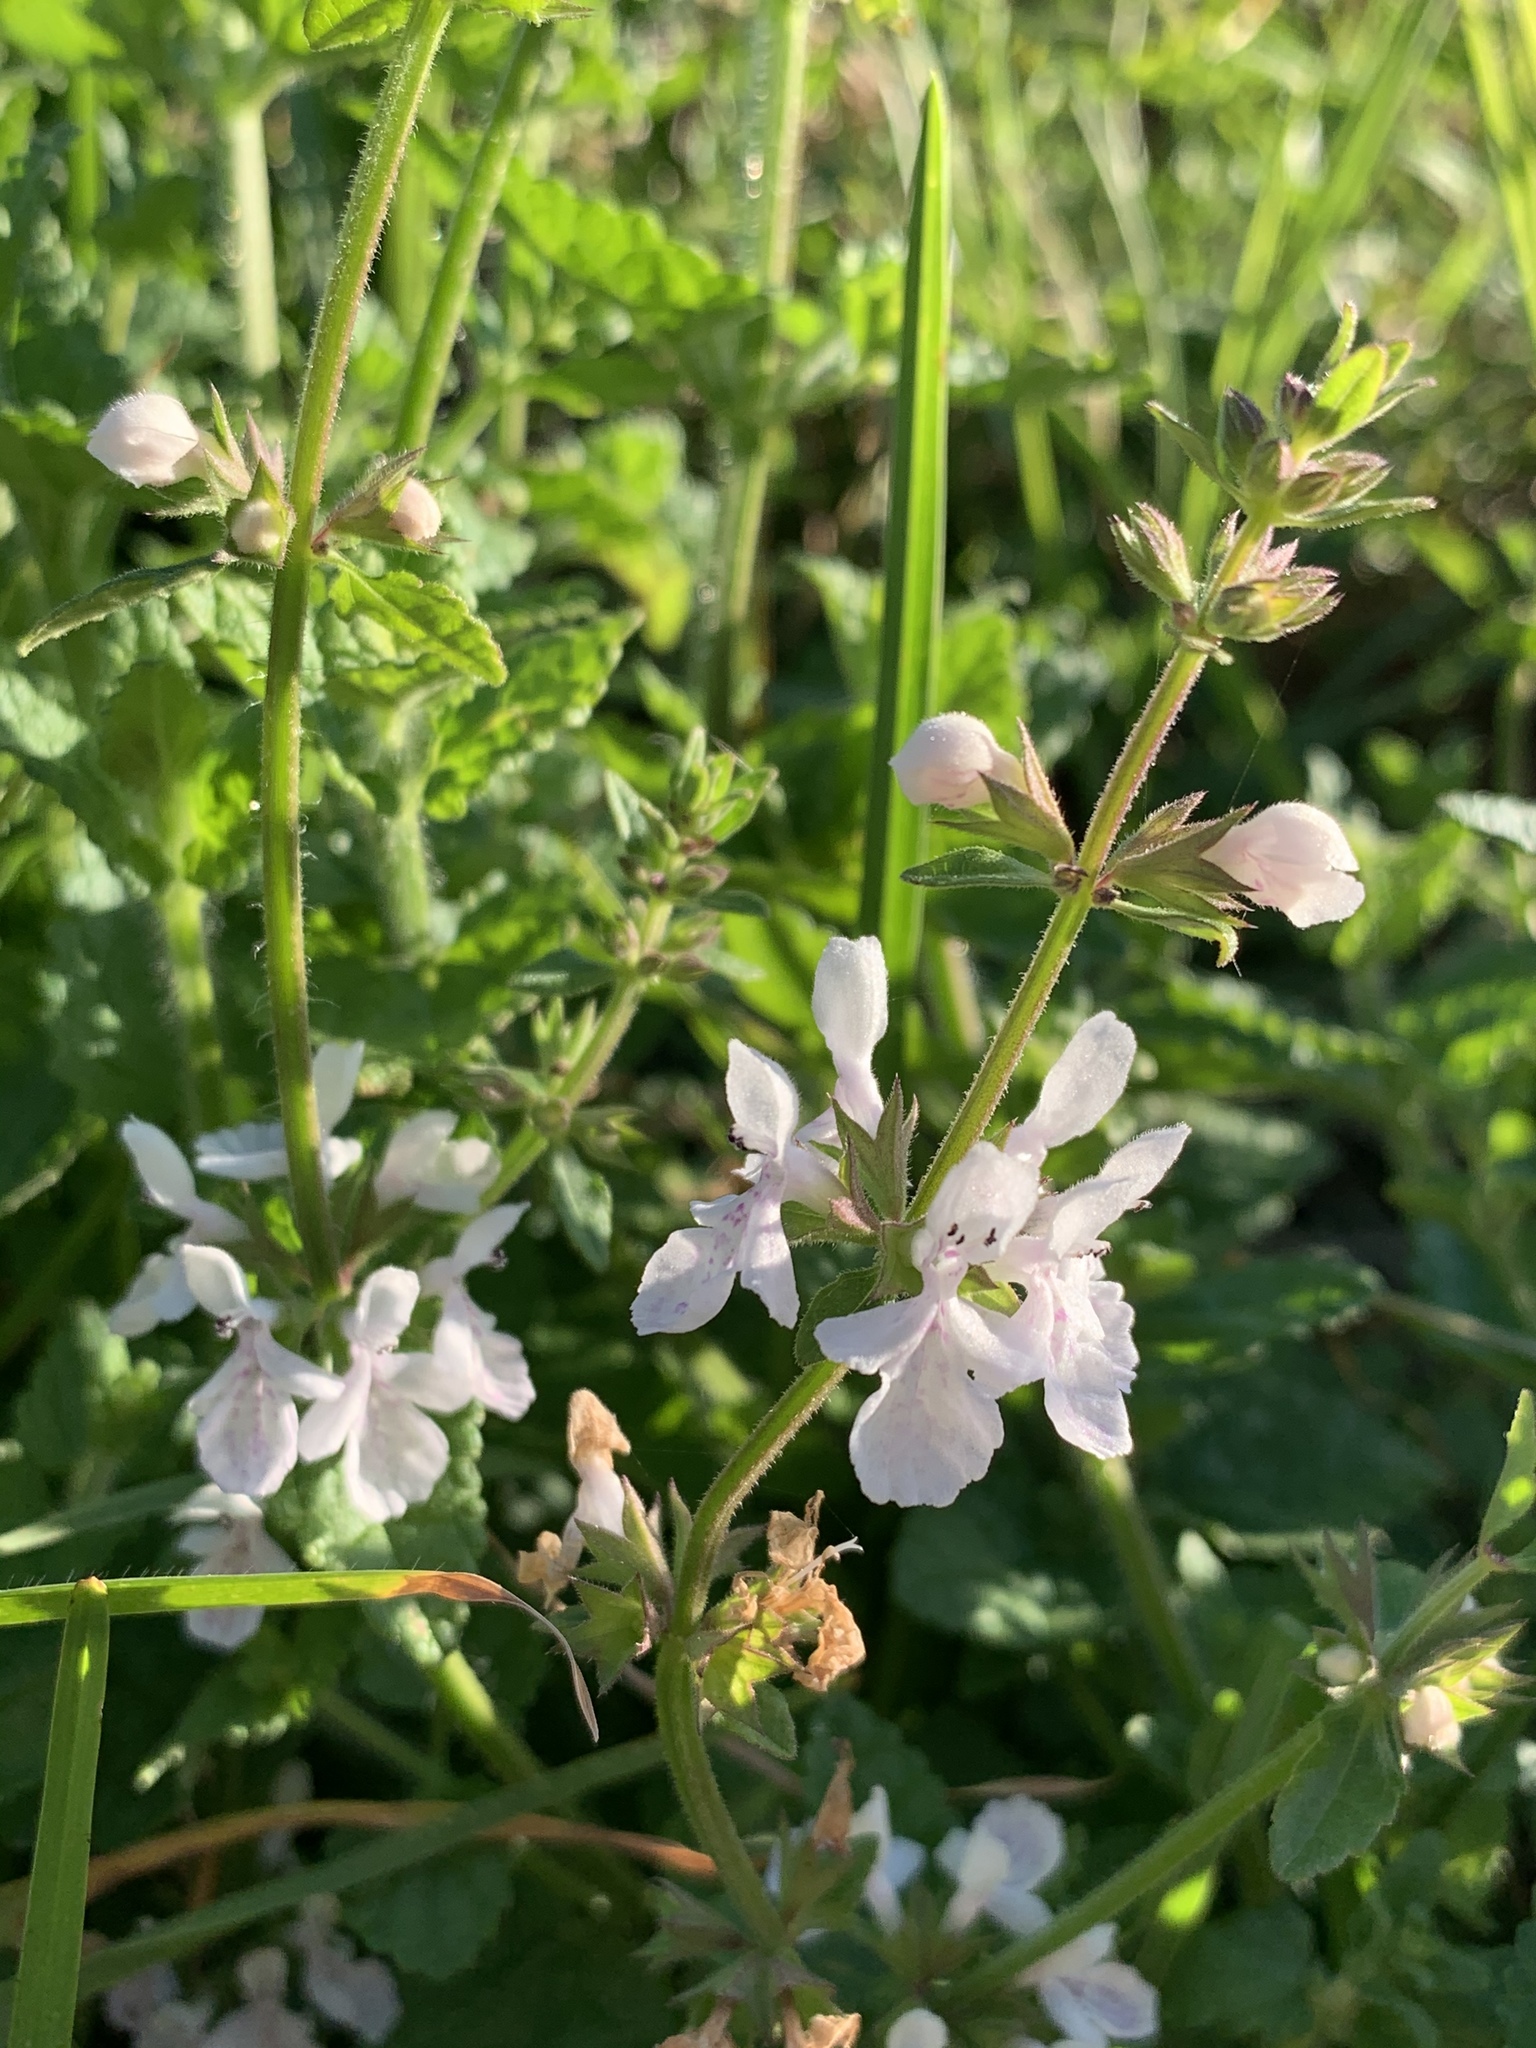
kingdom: Plantae
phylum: Tracheophyta
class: Magnoliopsida
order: Lamiales
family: Lamiaceae
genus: Stachys
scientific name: Stachys aethiopica
